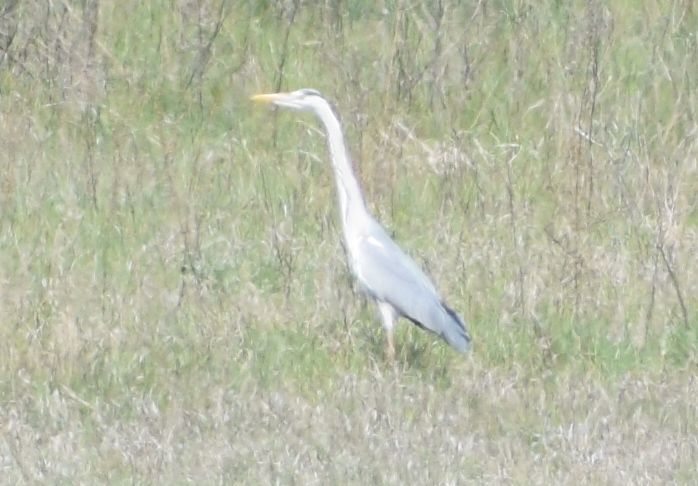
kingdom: Animalia
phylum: Chordata
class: Aves
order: Pelecaniformes
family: Ardeidae
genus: Ardea
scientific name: Ardea cinerea
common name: Grey heron
